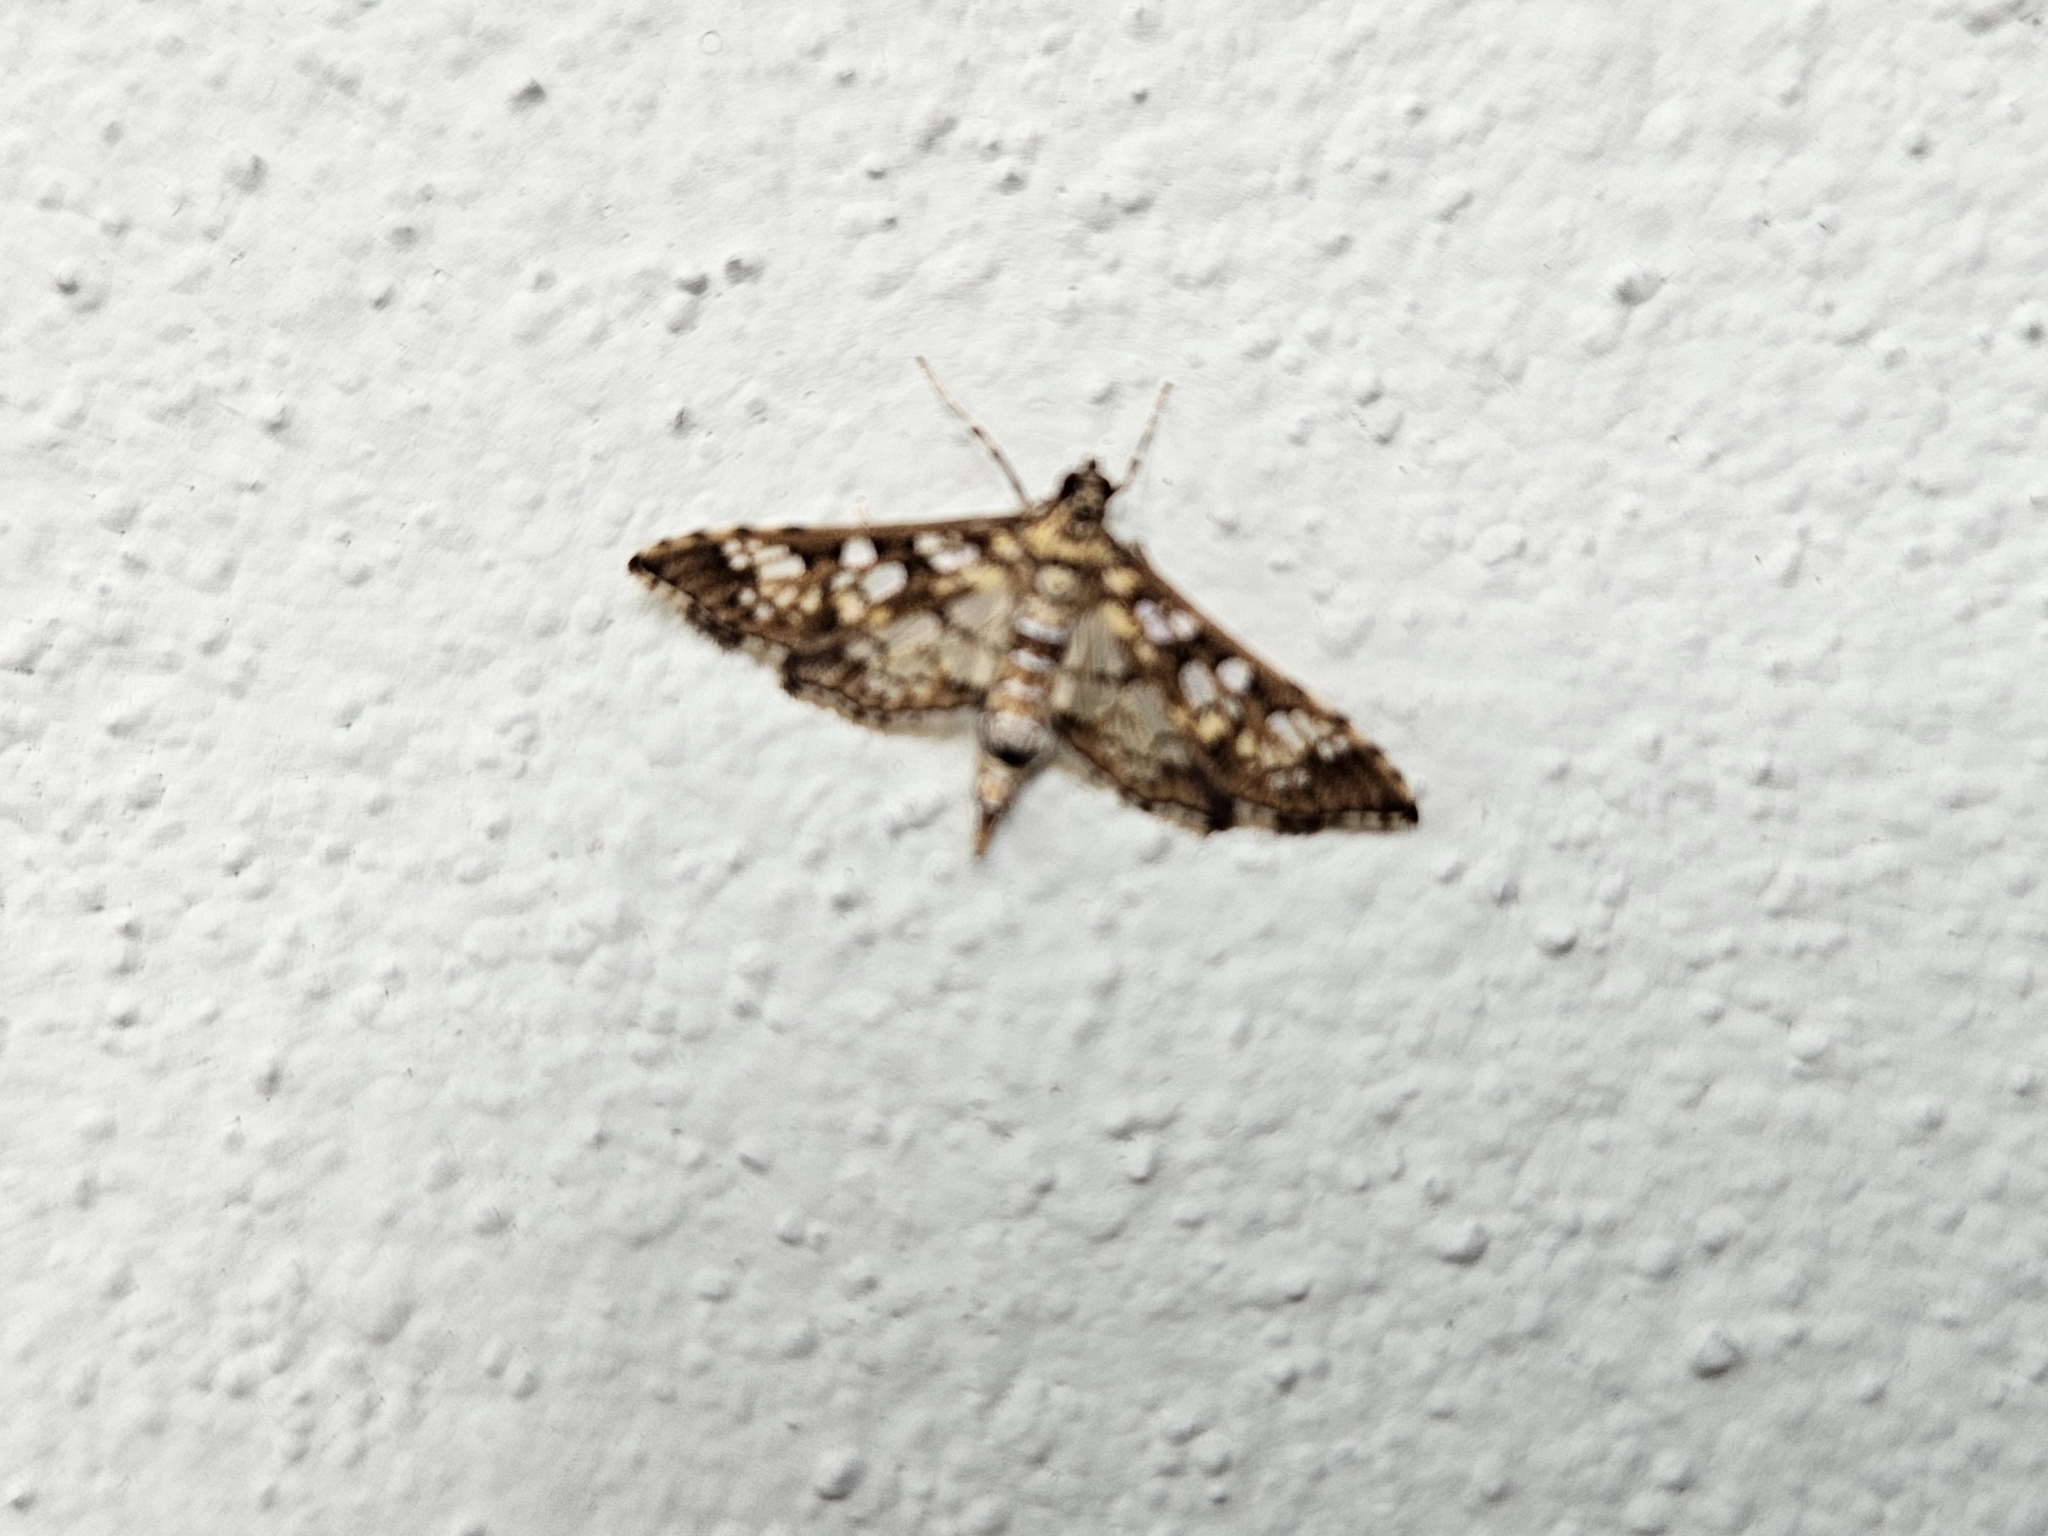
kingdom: Animalia
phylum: Arthropoda
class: Insecta
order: Lepidoptera
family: Crambidae
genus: Samea
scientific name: Samea ecclesialis
